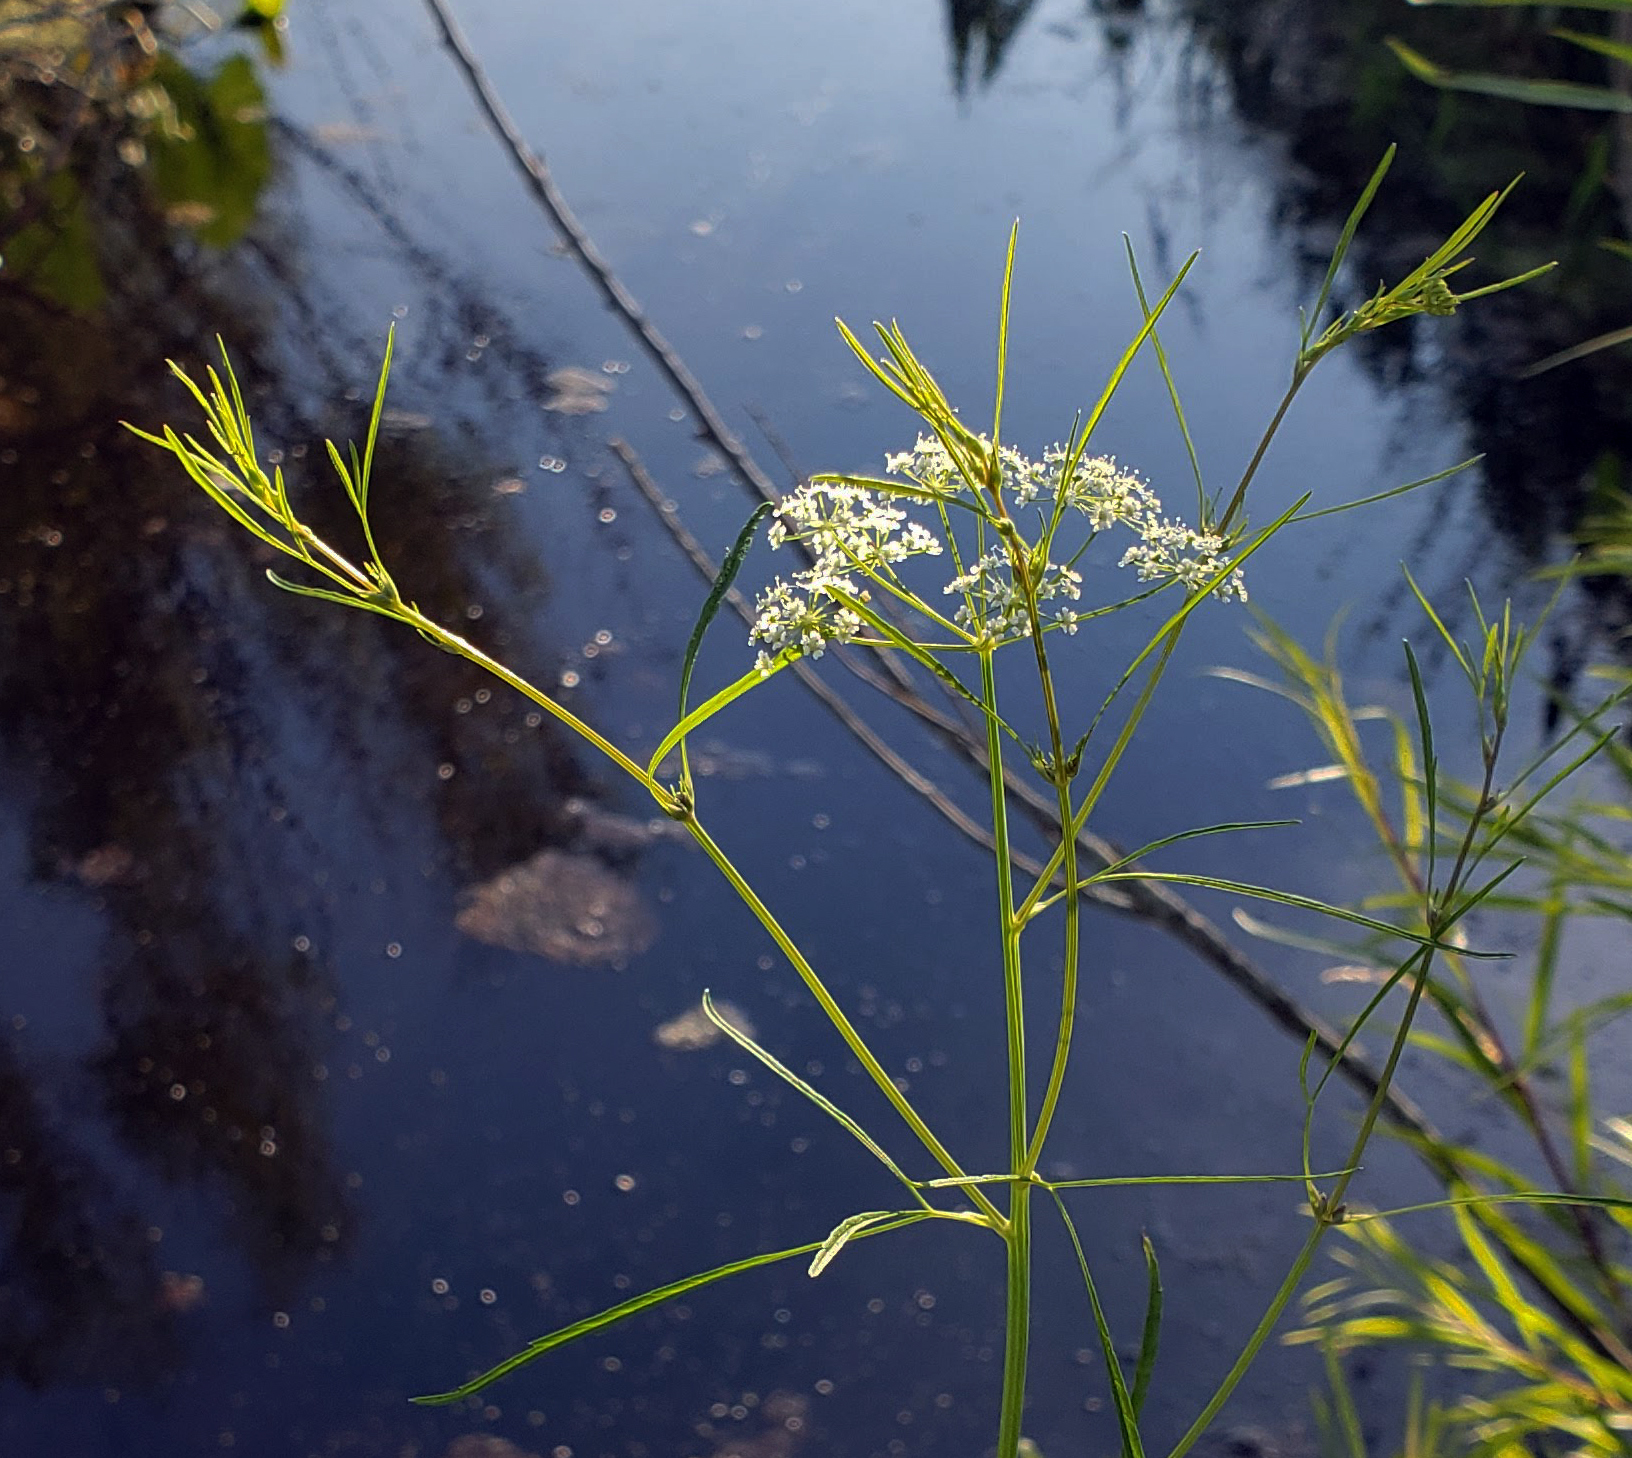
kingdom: Plantae
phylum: Tracheophyta
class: Magnoliopsida
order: Apiales
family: Apiaceae
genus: Cicuta
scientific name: Cicuta bulbifera
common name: Bulb-bearing water-hemlock
